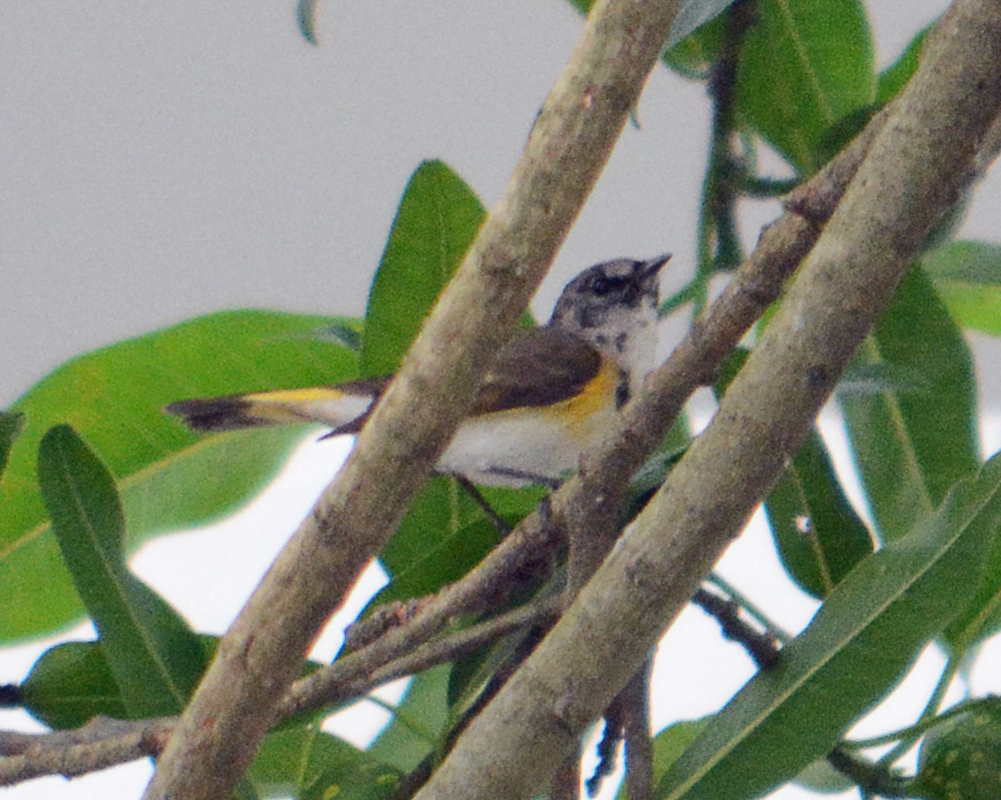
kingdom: Animalia
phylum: Chordata
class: Aves
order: Passeriformes
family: Parulidae
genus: Setophaga
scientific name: Setophaga ruticilla
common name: American redstart
